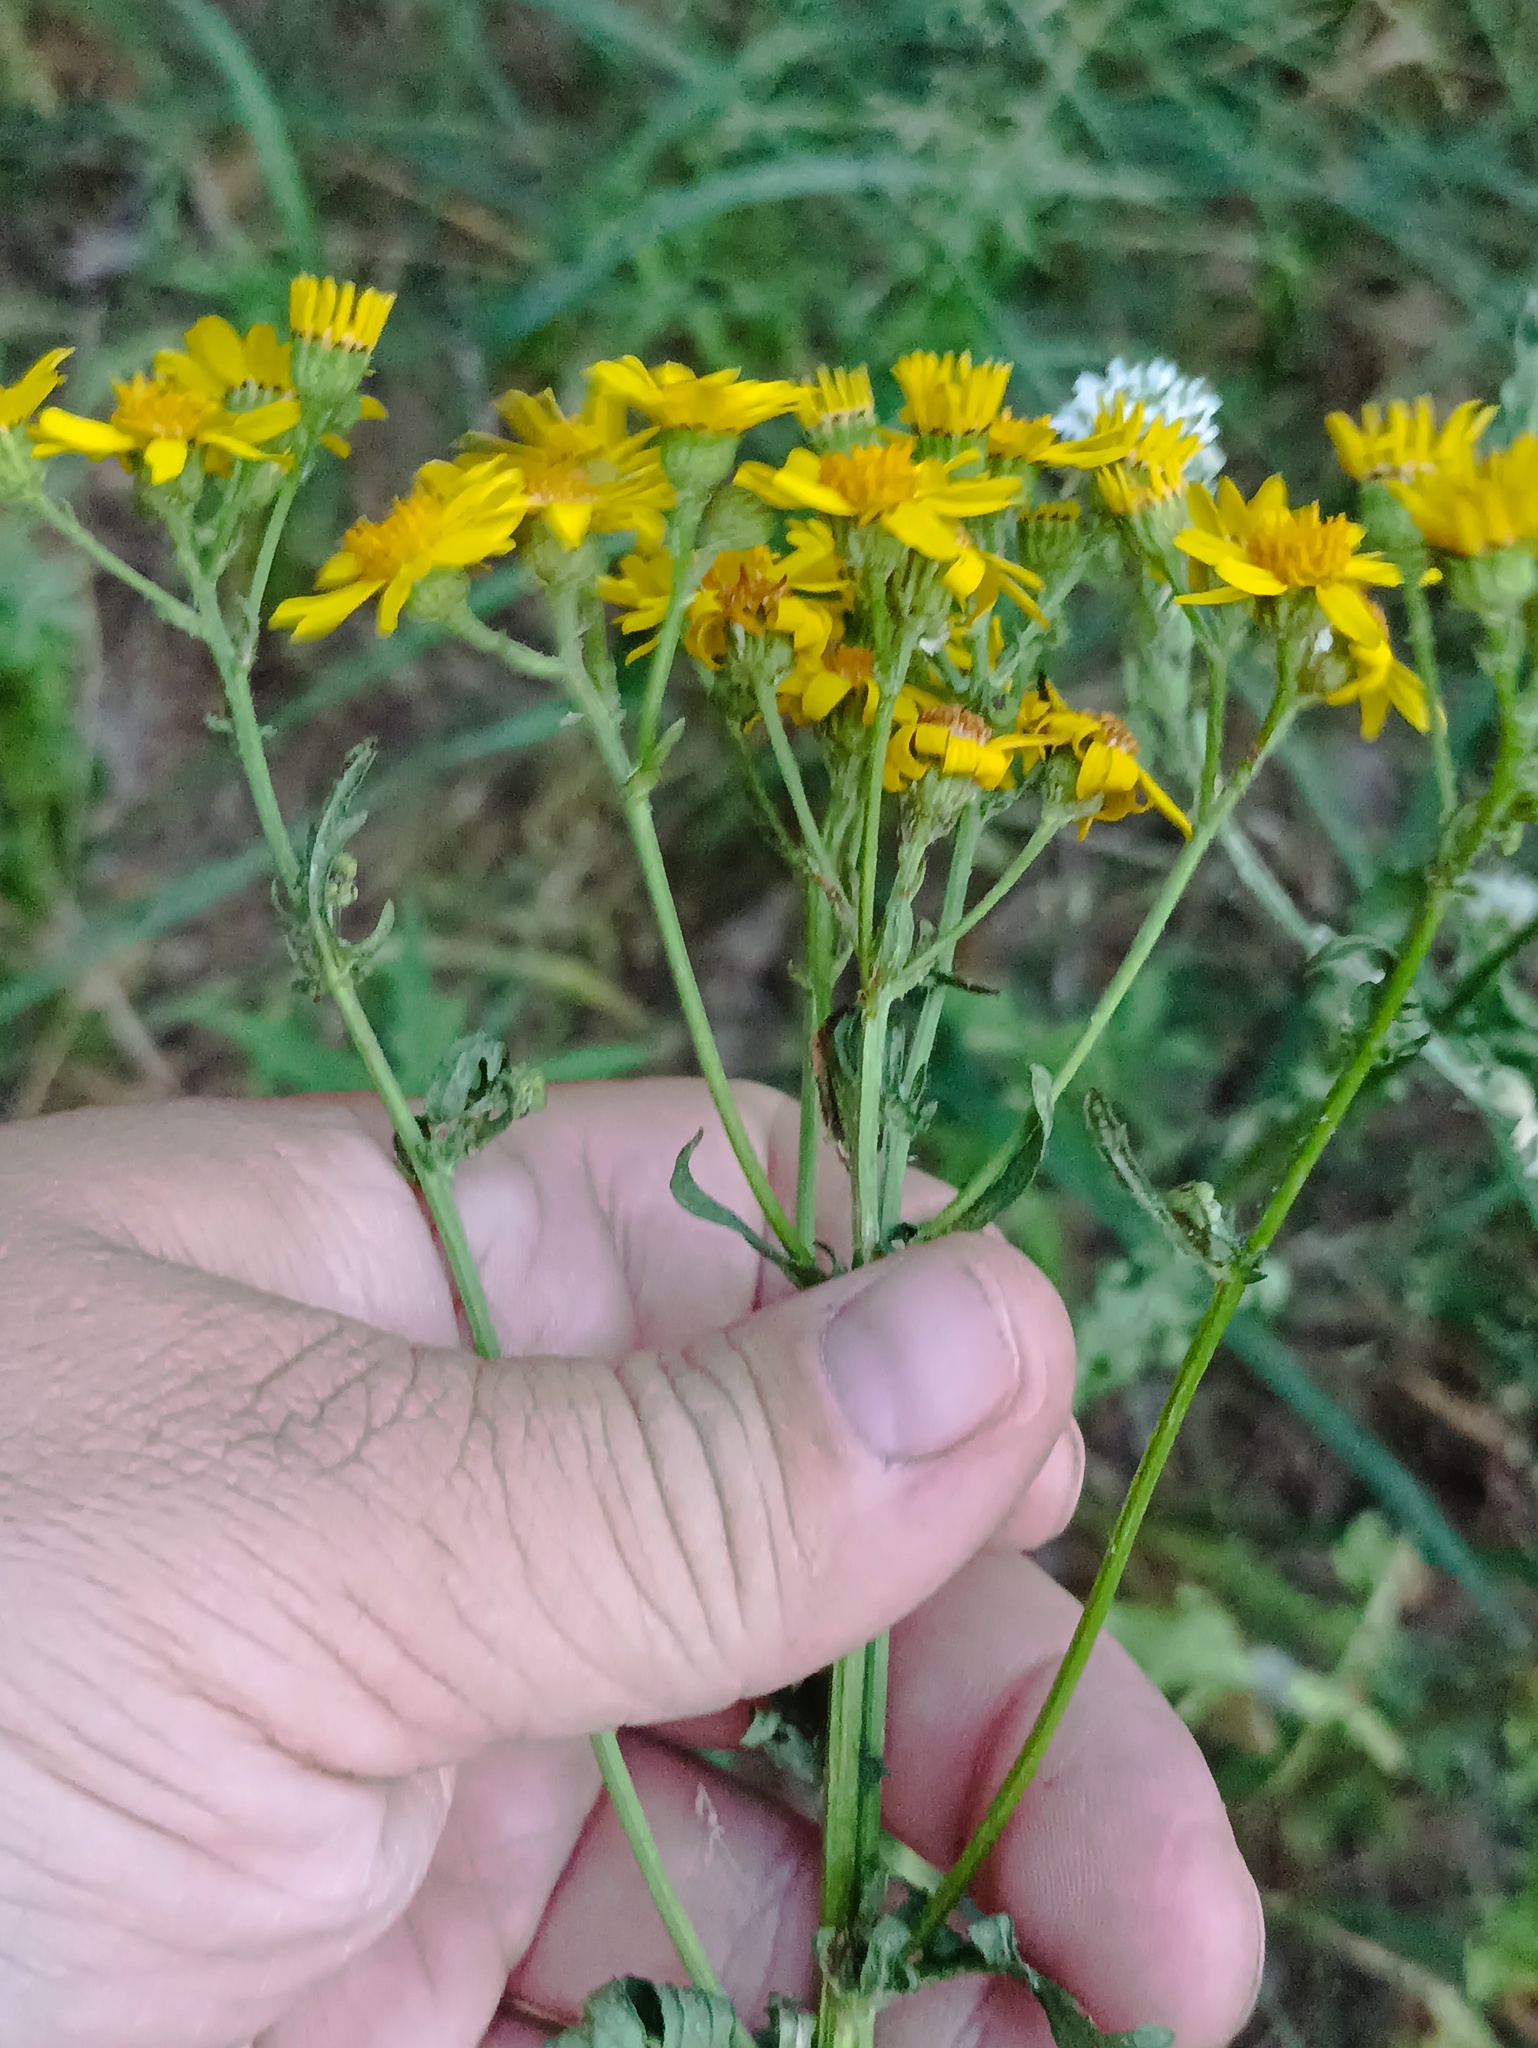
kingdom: Plantae
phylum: Tracheophyta
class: Magnoliopsida
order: Asterales
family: Asteraceae
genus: Jacobaea
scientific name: Jacobaea vulgaris
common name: Stinking willie
